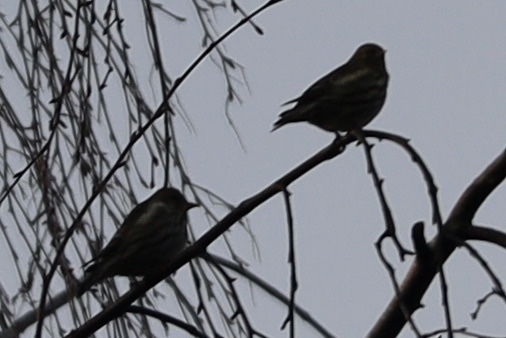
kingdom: Animalia
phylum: Chordata
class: Aves
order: Passeriformes
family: Fringillidae
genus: Spinus
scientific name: Spinus pinus
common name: Pine siskin
